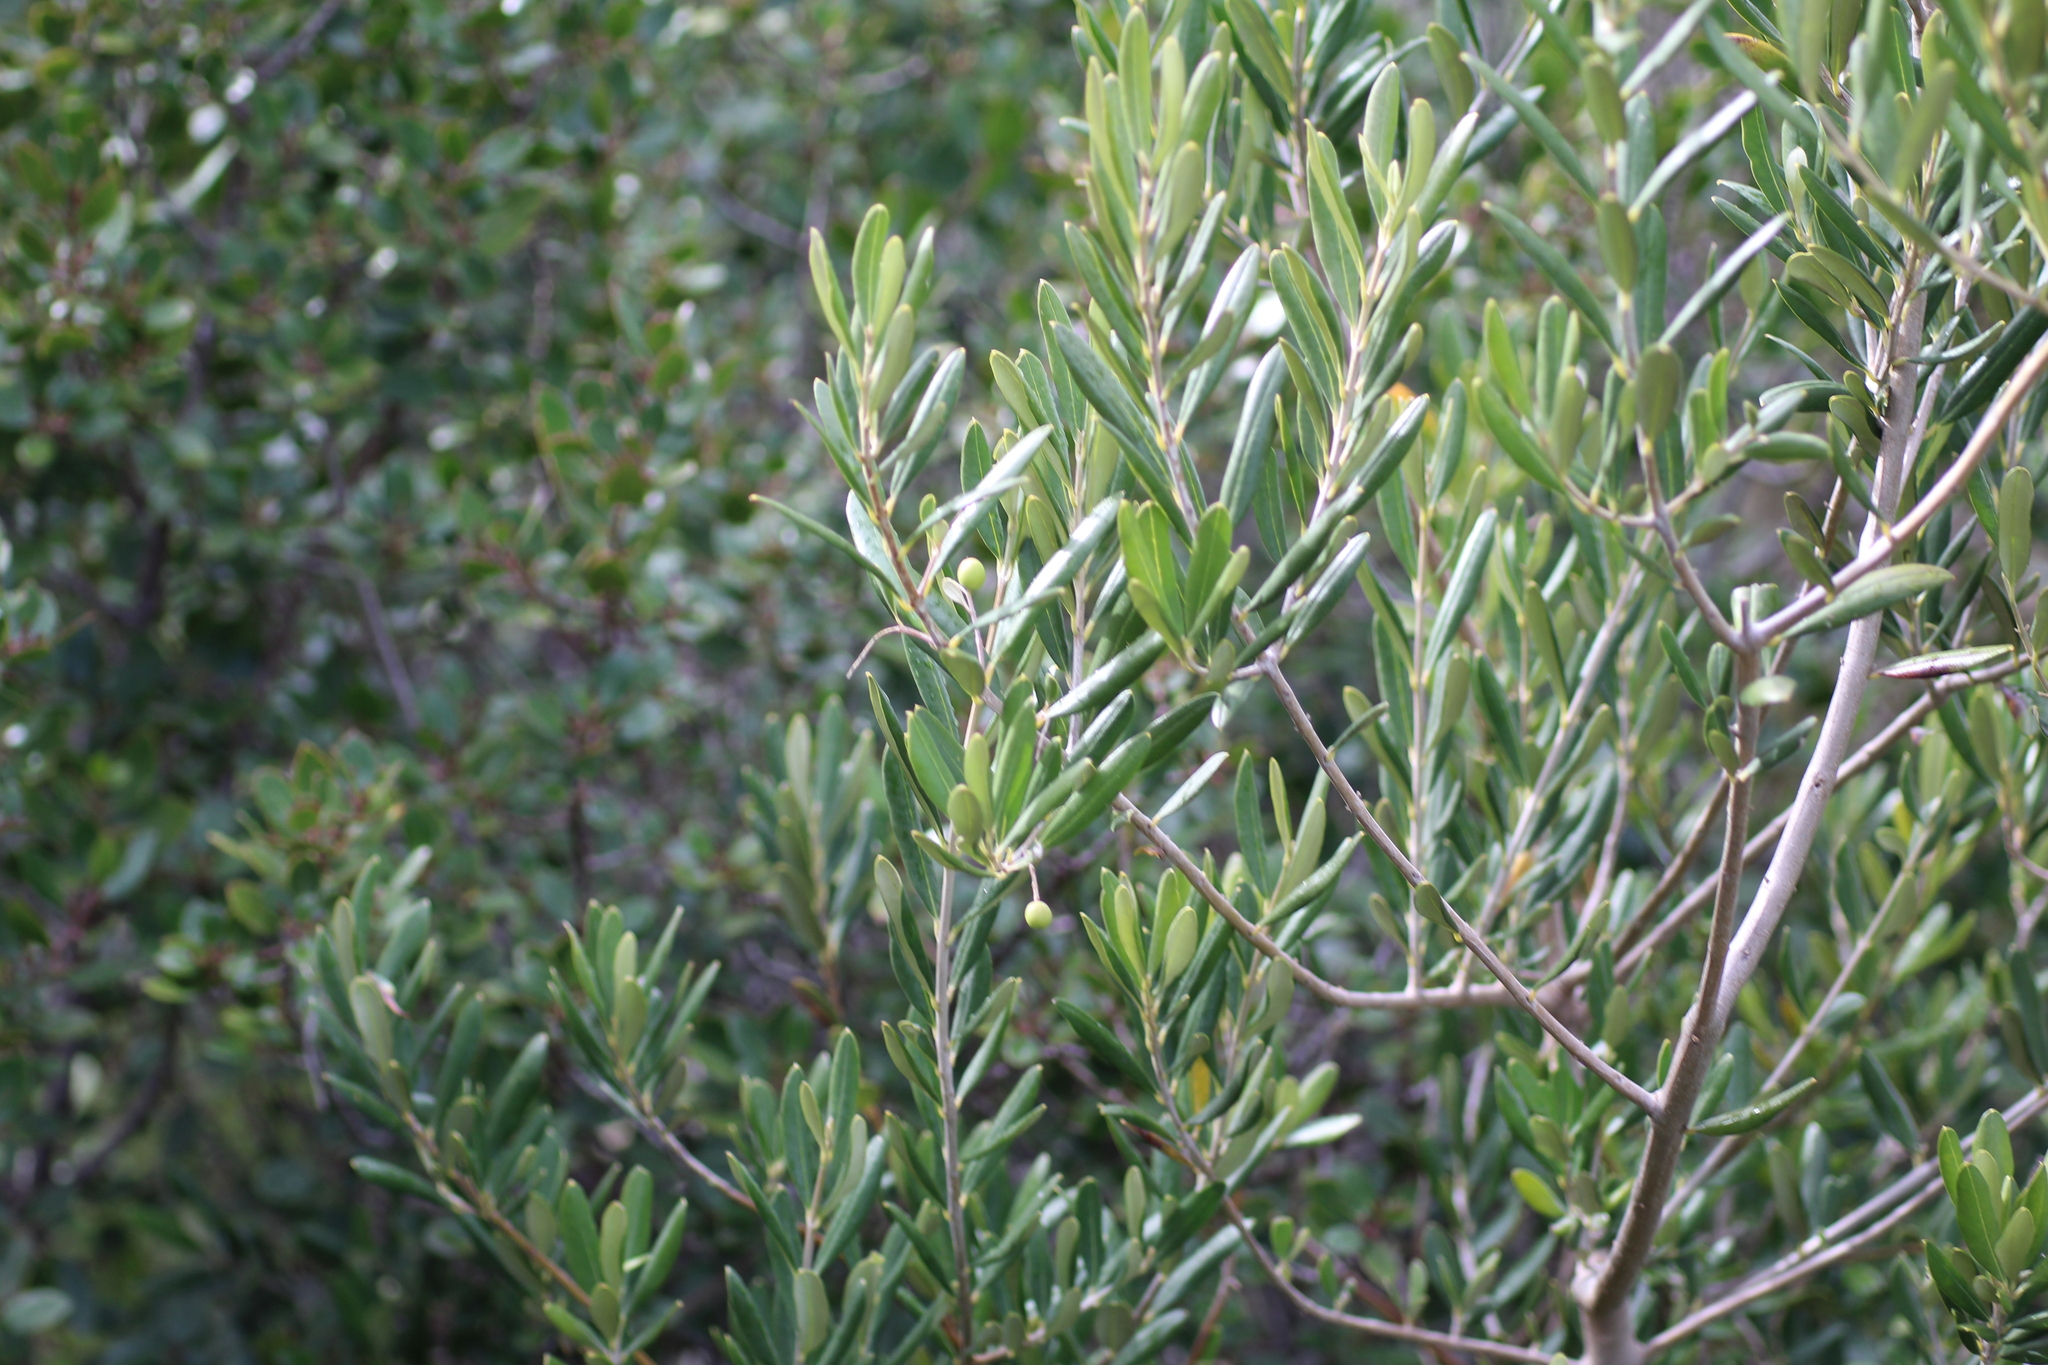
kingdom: Plantae
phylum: Tracheophyta
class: Magnoliopsida
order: Lamiales
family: Oleaceae
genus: Olea
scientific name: Olea europaea
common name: Olive
